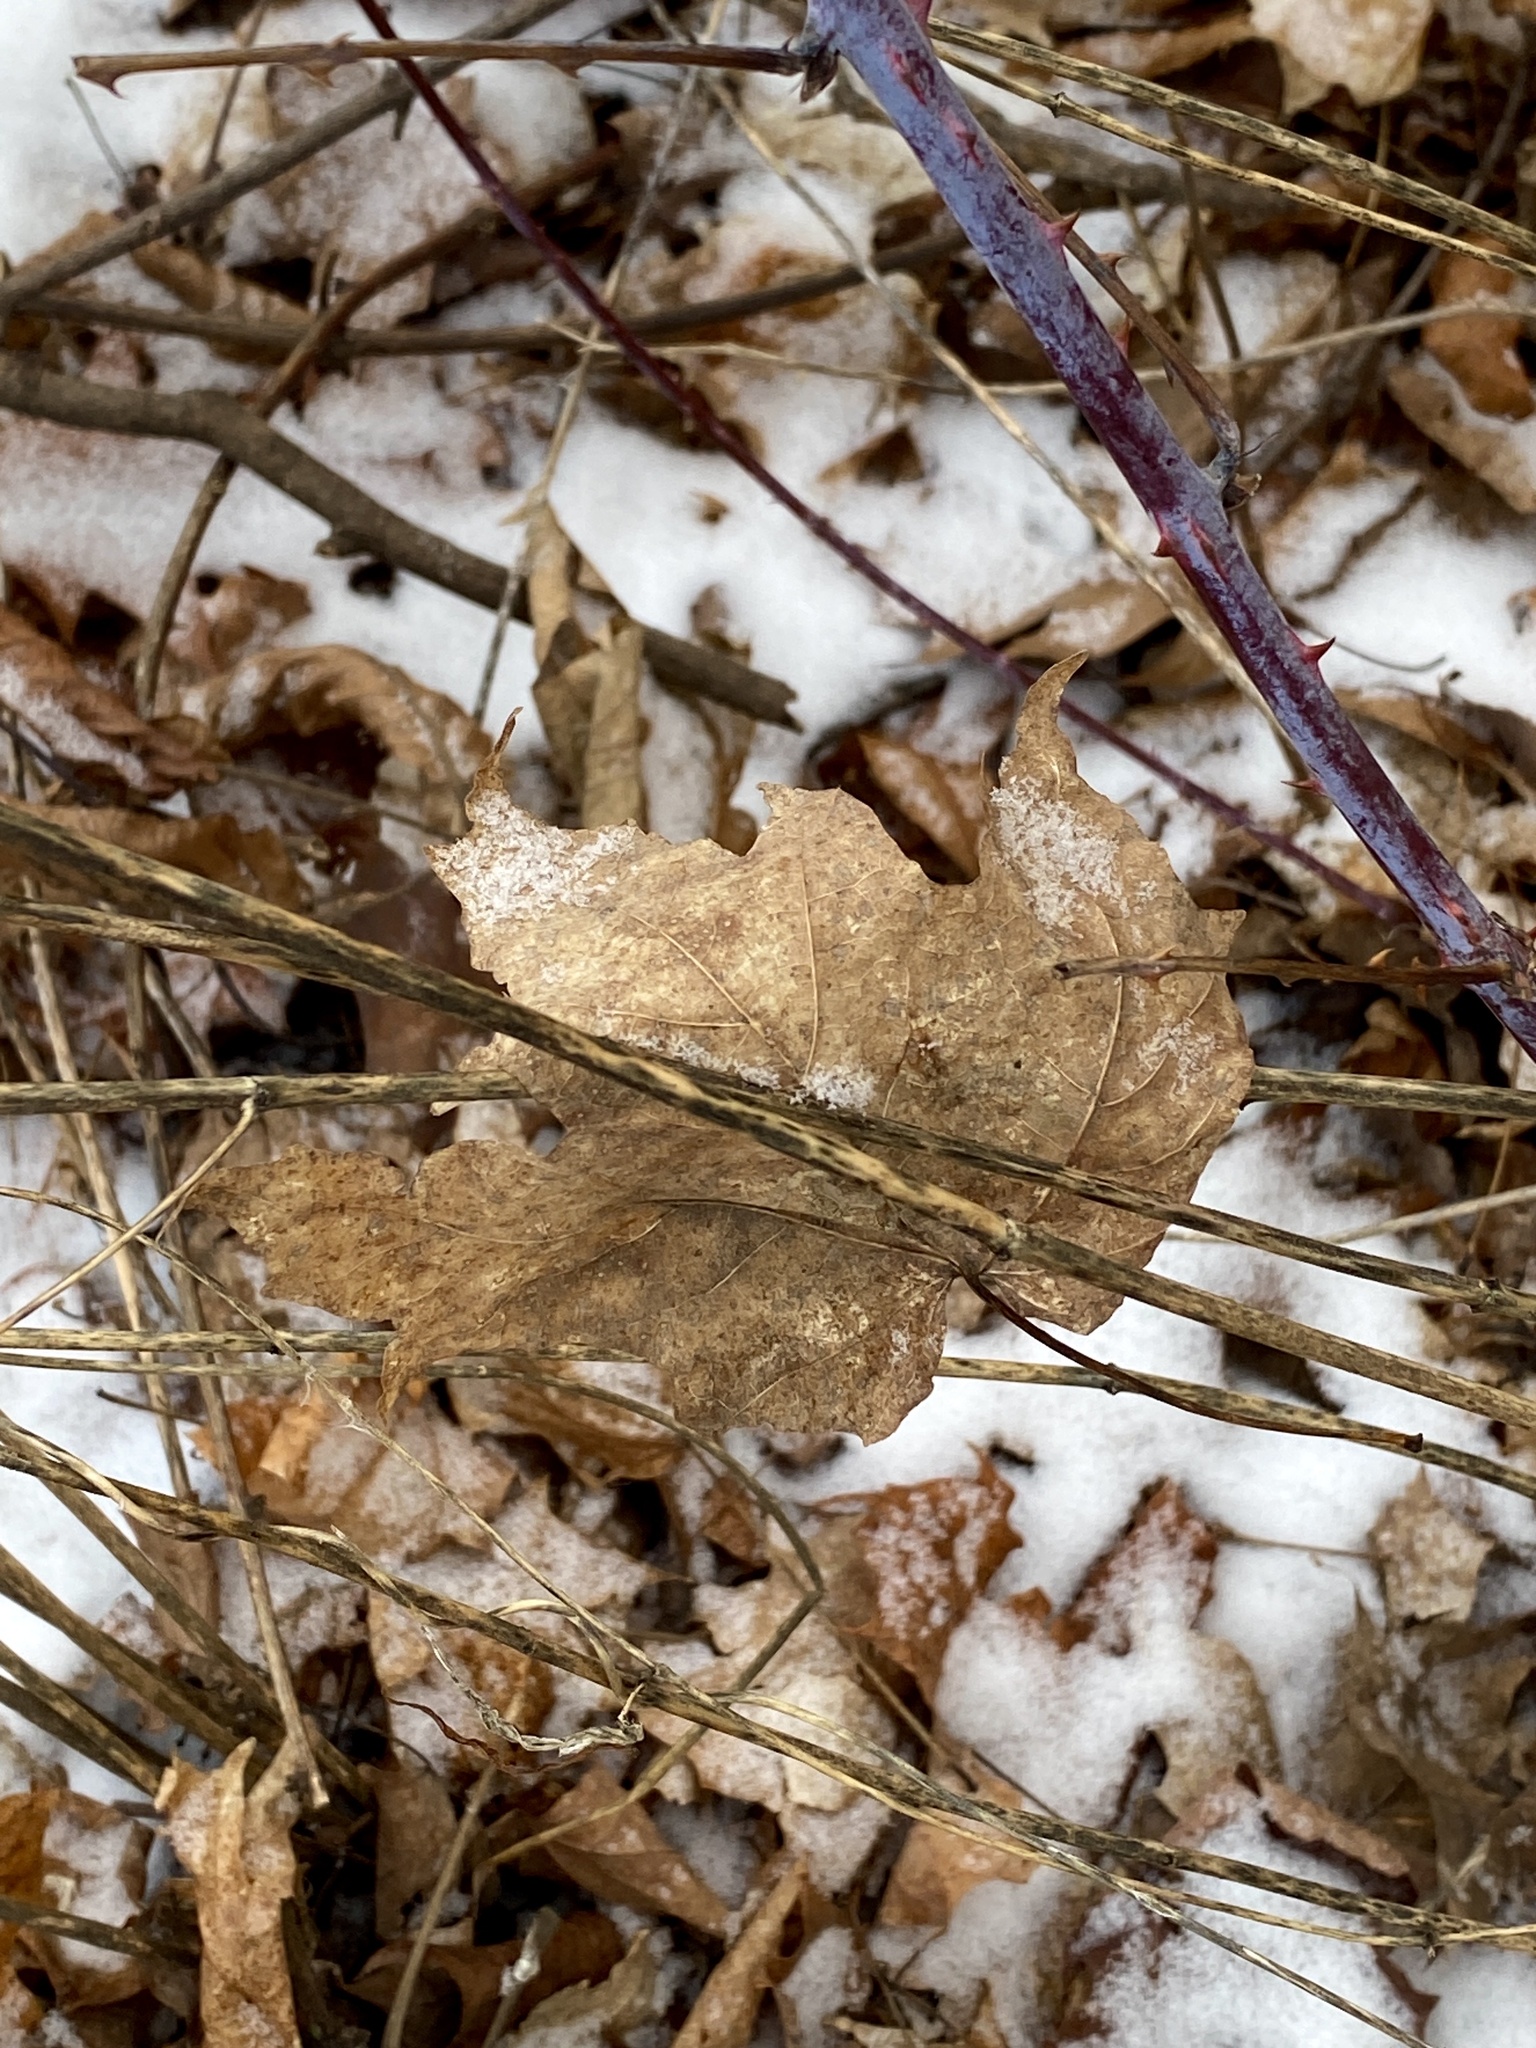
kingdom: Plantae
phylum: Tracheophyta
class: Magnoliopsida
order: Sapindales
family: Sapindaceae
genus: Acer
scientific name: Acer saccharum
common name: Sugar maple
